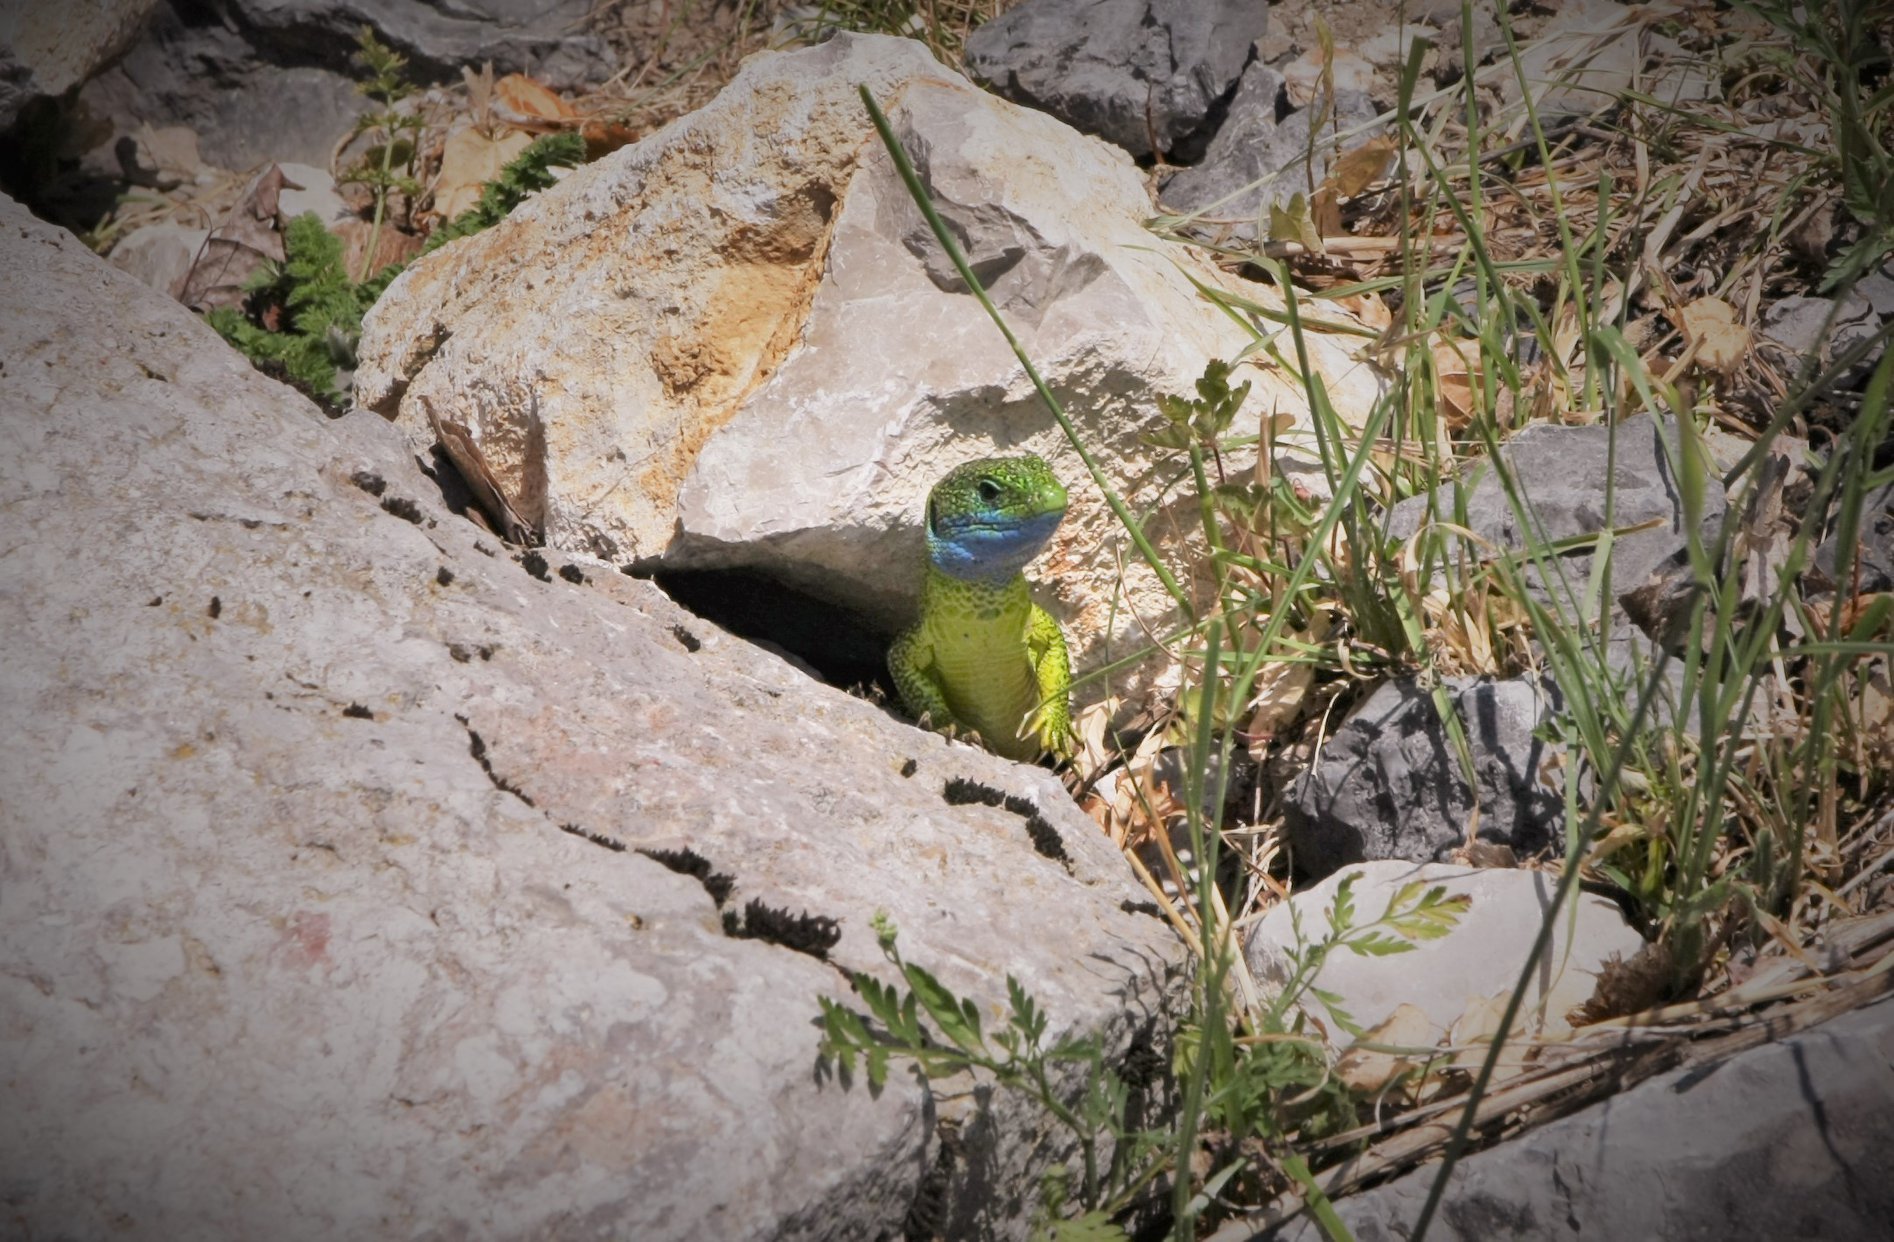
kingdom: Animalia
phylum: Chordata
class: Squamata
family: Lacertidae
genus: Lacerta
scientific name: Lacerta viridis
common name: European green lizard
